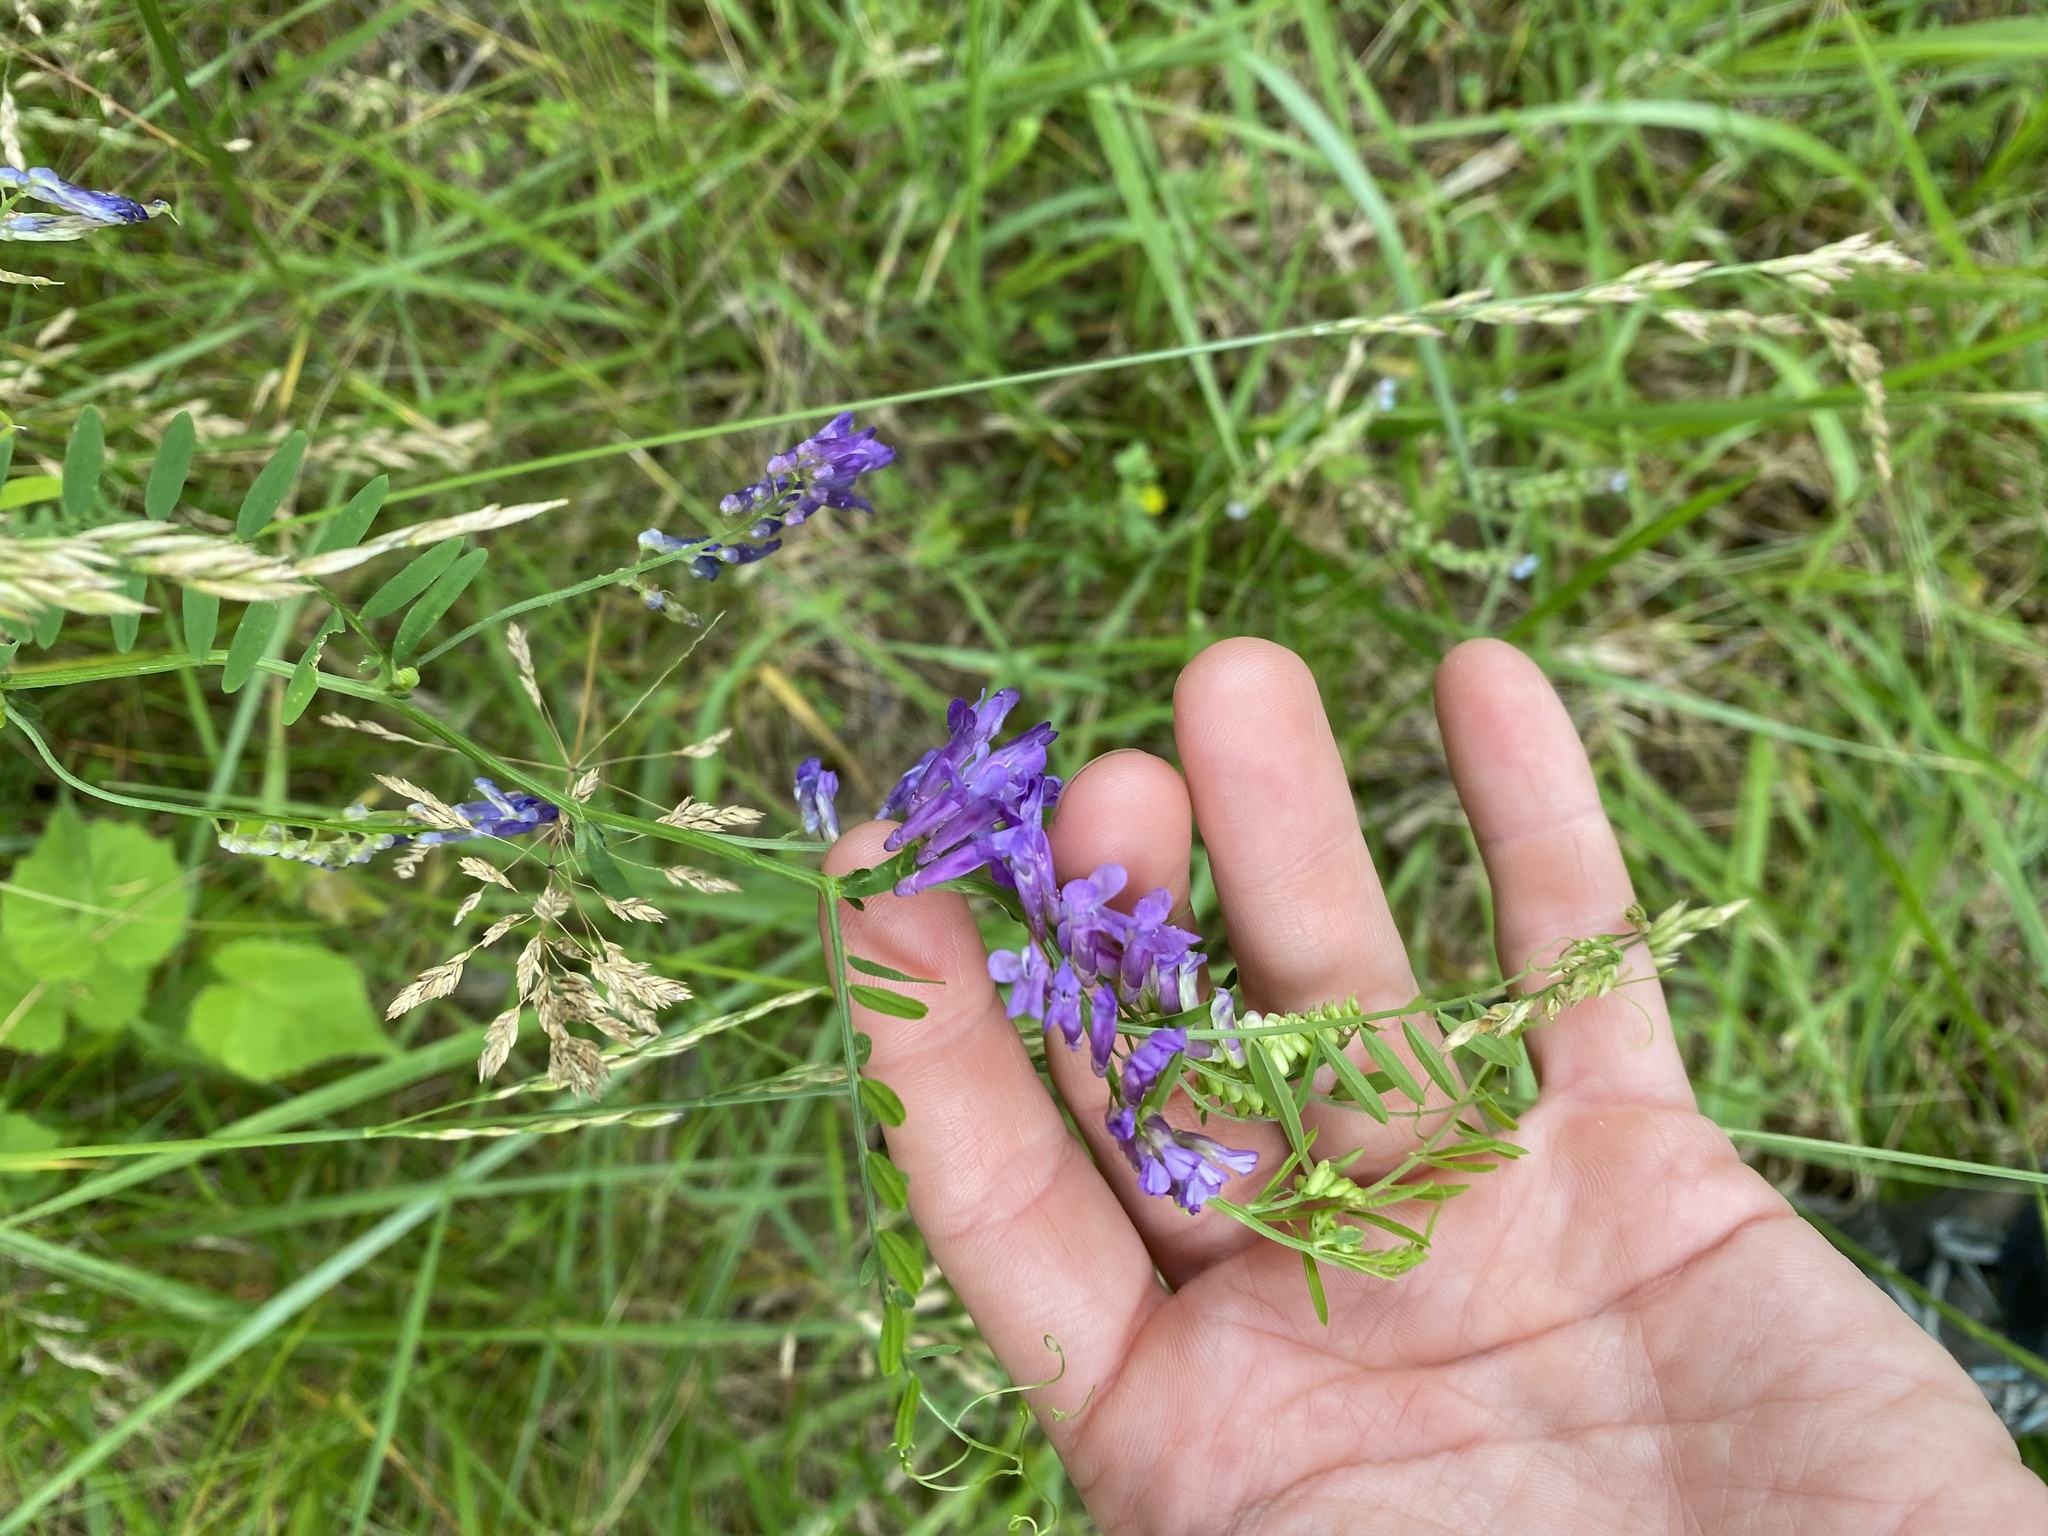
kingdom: Plantae
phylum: Tracheophyta
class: Magnoliopsida
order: Fabales
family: Fabaceae
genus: Vicia
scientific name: Vicia villosa
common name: Fodder vetch
